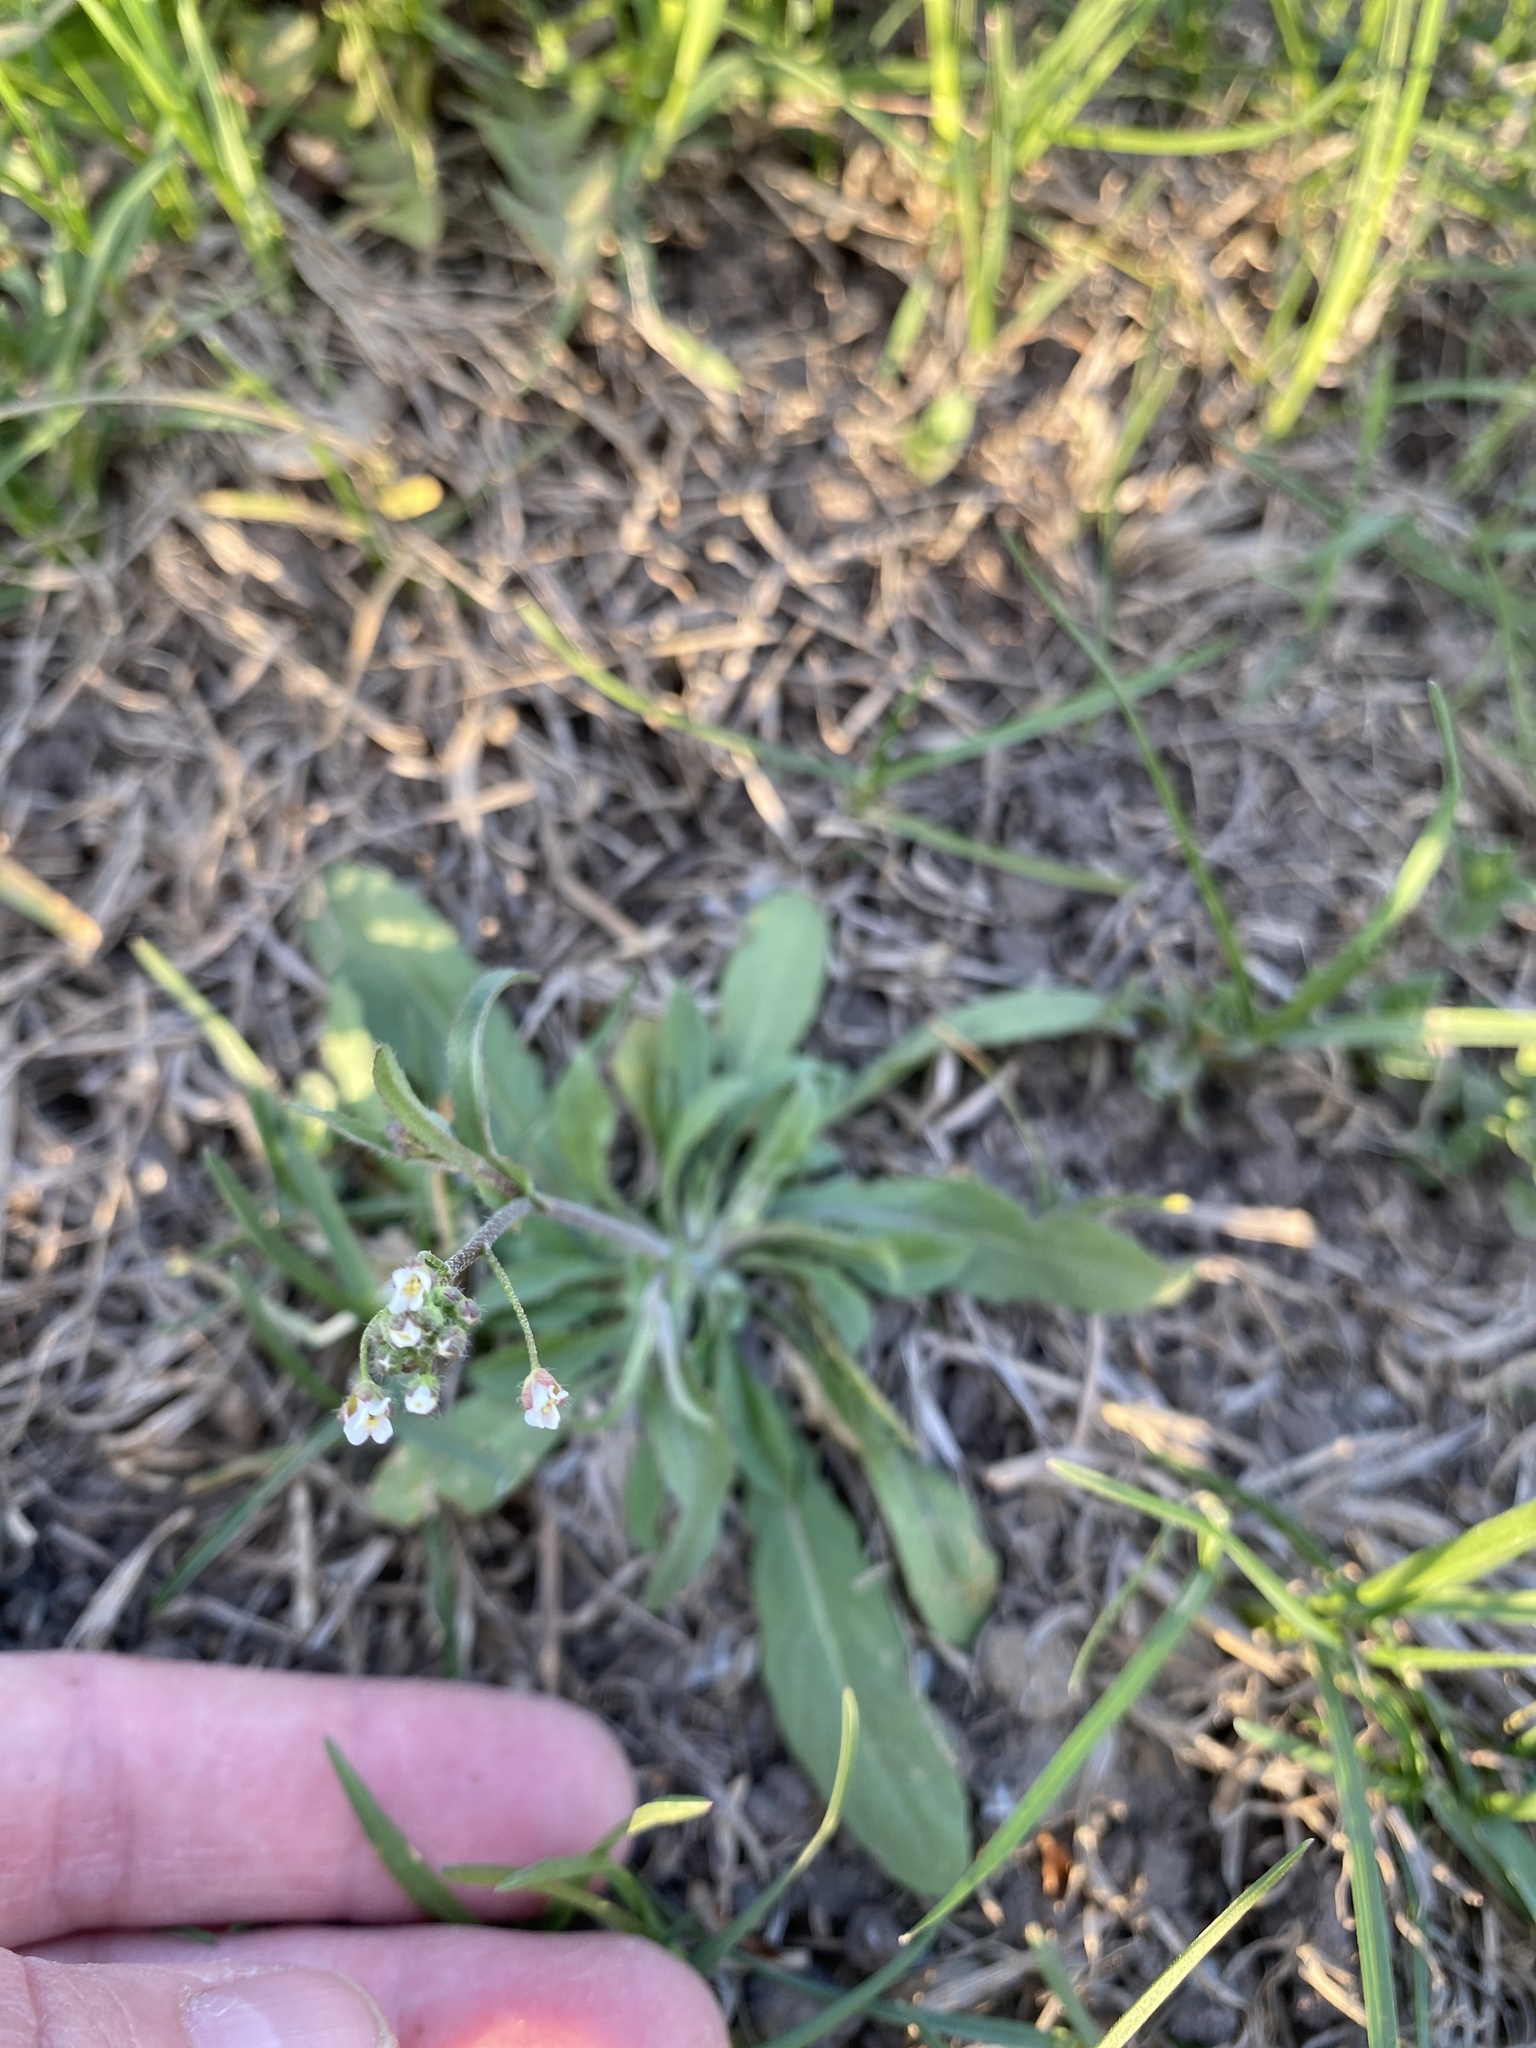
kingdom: Plantae
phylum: Tracheophyta
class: Magnoliopsida
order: Brassicales
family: Brassicaceae
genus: Capsella
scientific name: Capsella bursa-pastoris
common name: Shepherd's purse
